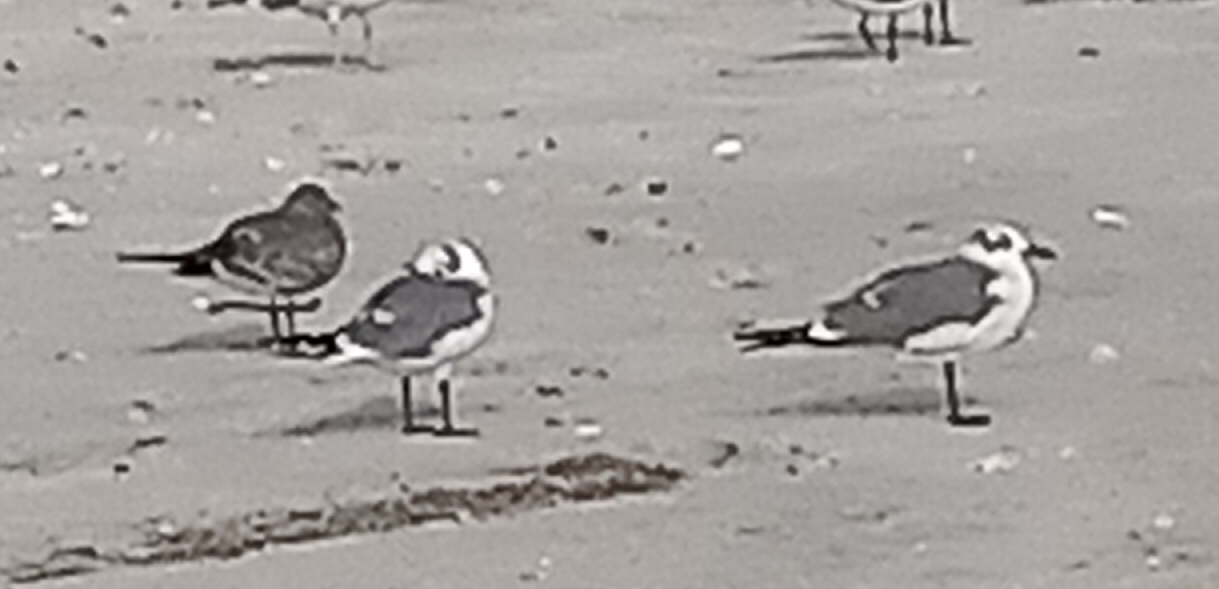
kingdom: Animalia
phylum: Chordata
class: Aves
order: Charadriiformes
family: Laridae
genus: Leucophaeus
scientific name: Leucophaeus atricilla
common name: Laughing gull
